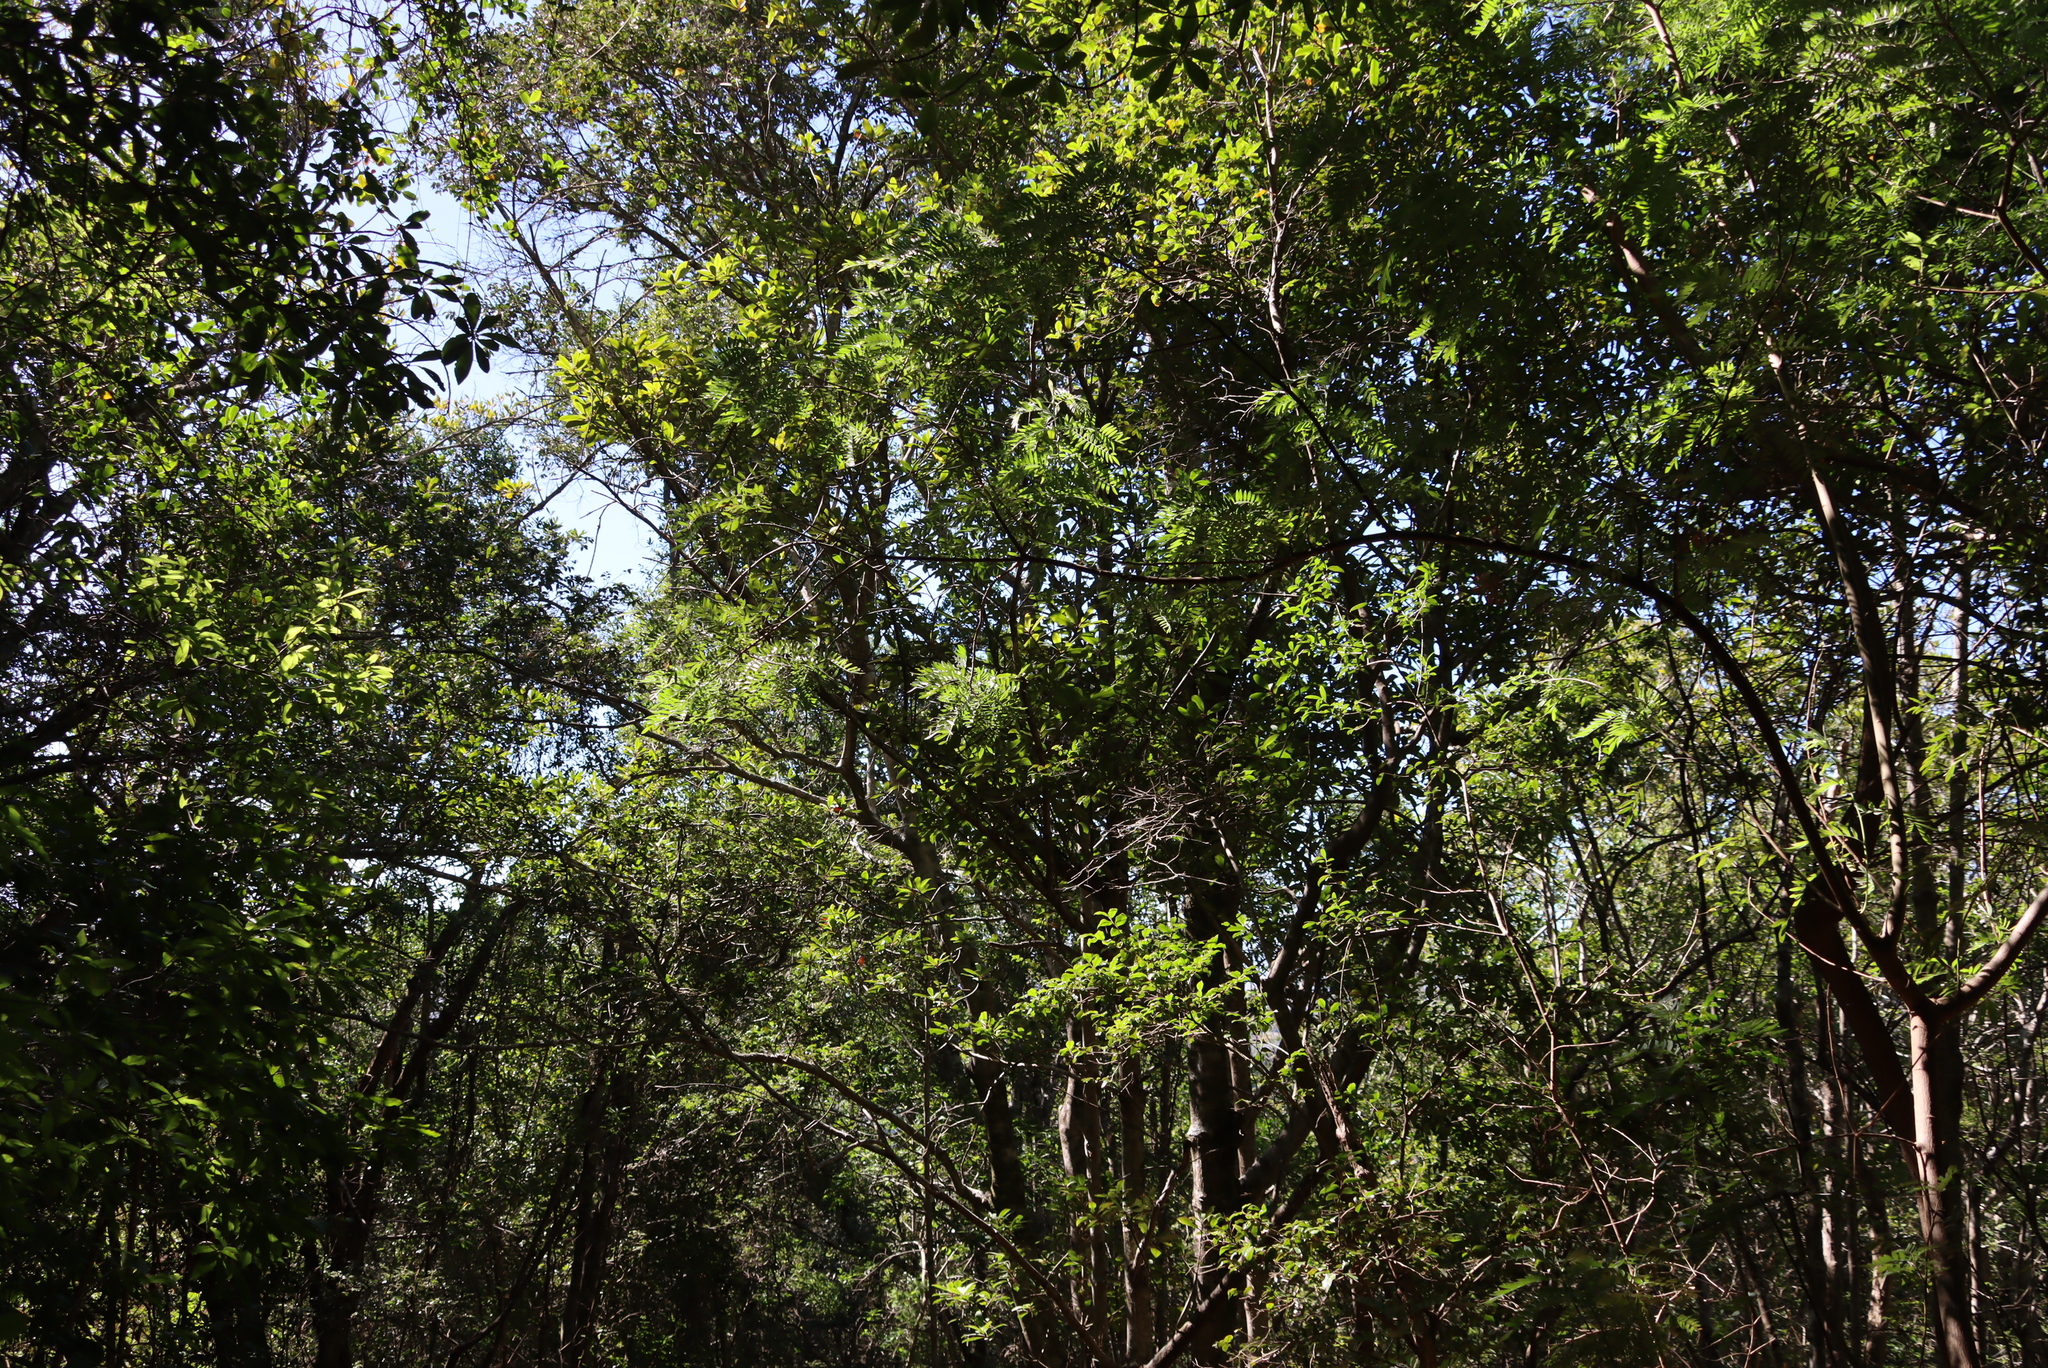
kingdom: Plantae
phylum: Tracheophyta
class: Magnoliopsida
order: Fabales
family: Fabaceae
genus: Virgilia
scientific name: Virgilia oroboides
